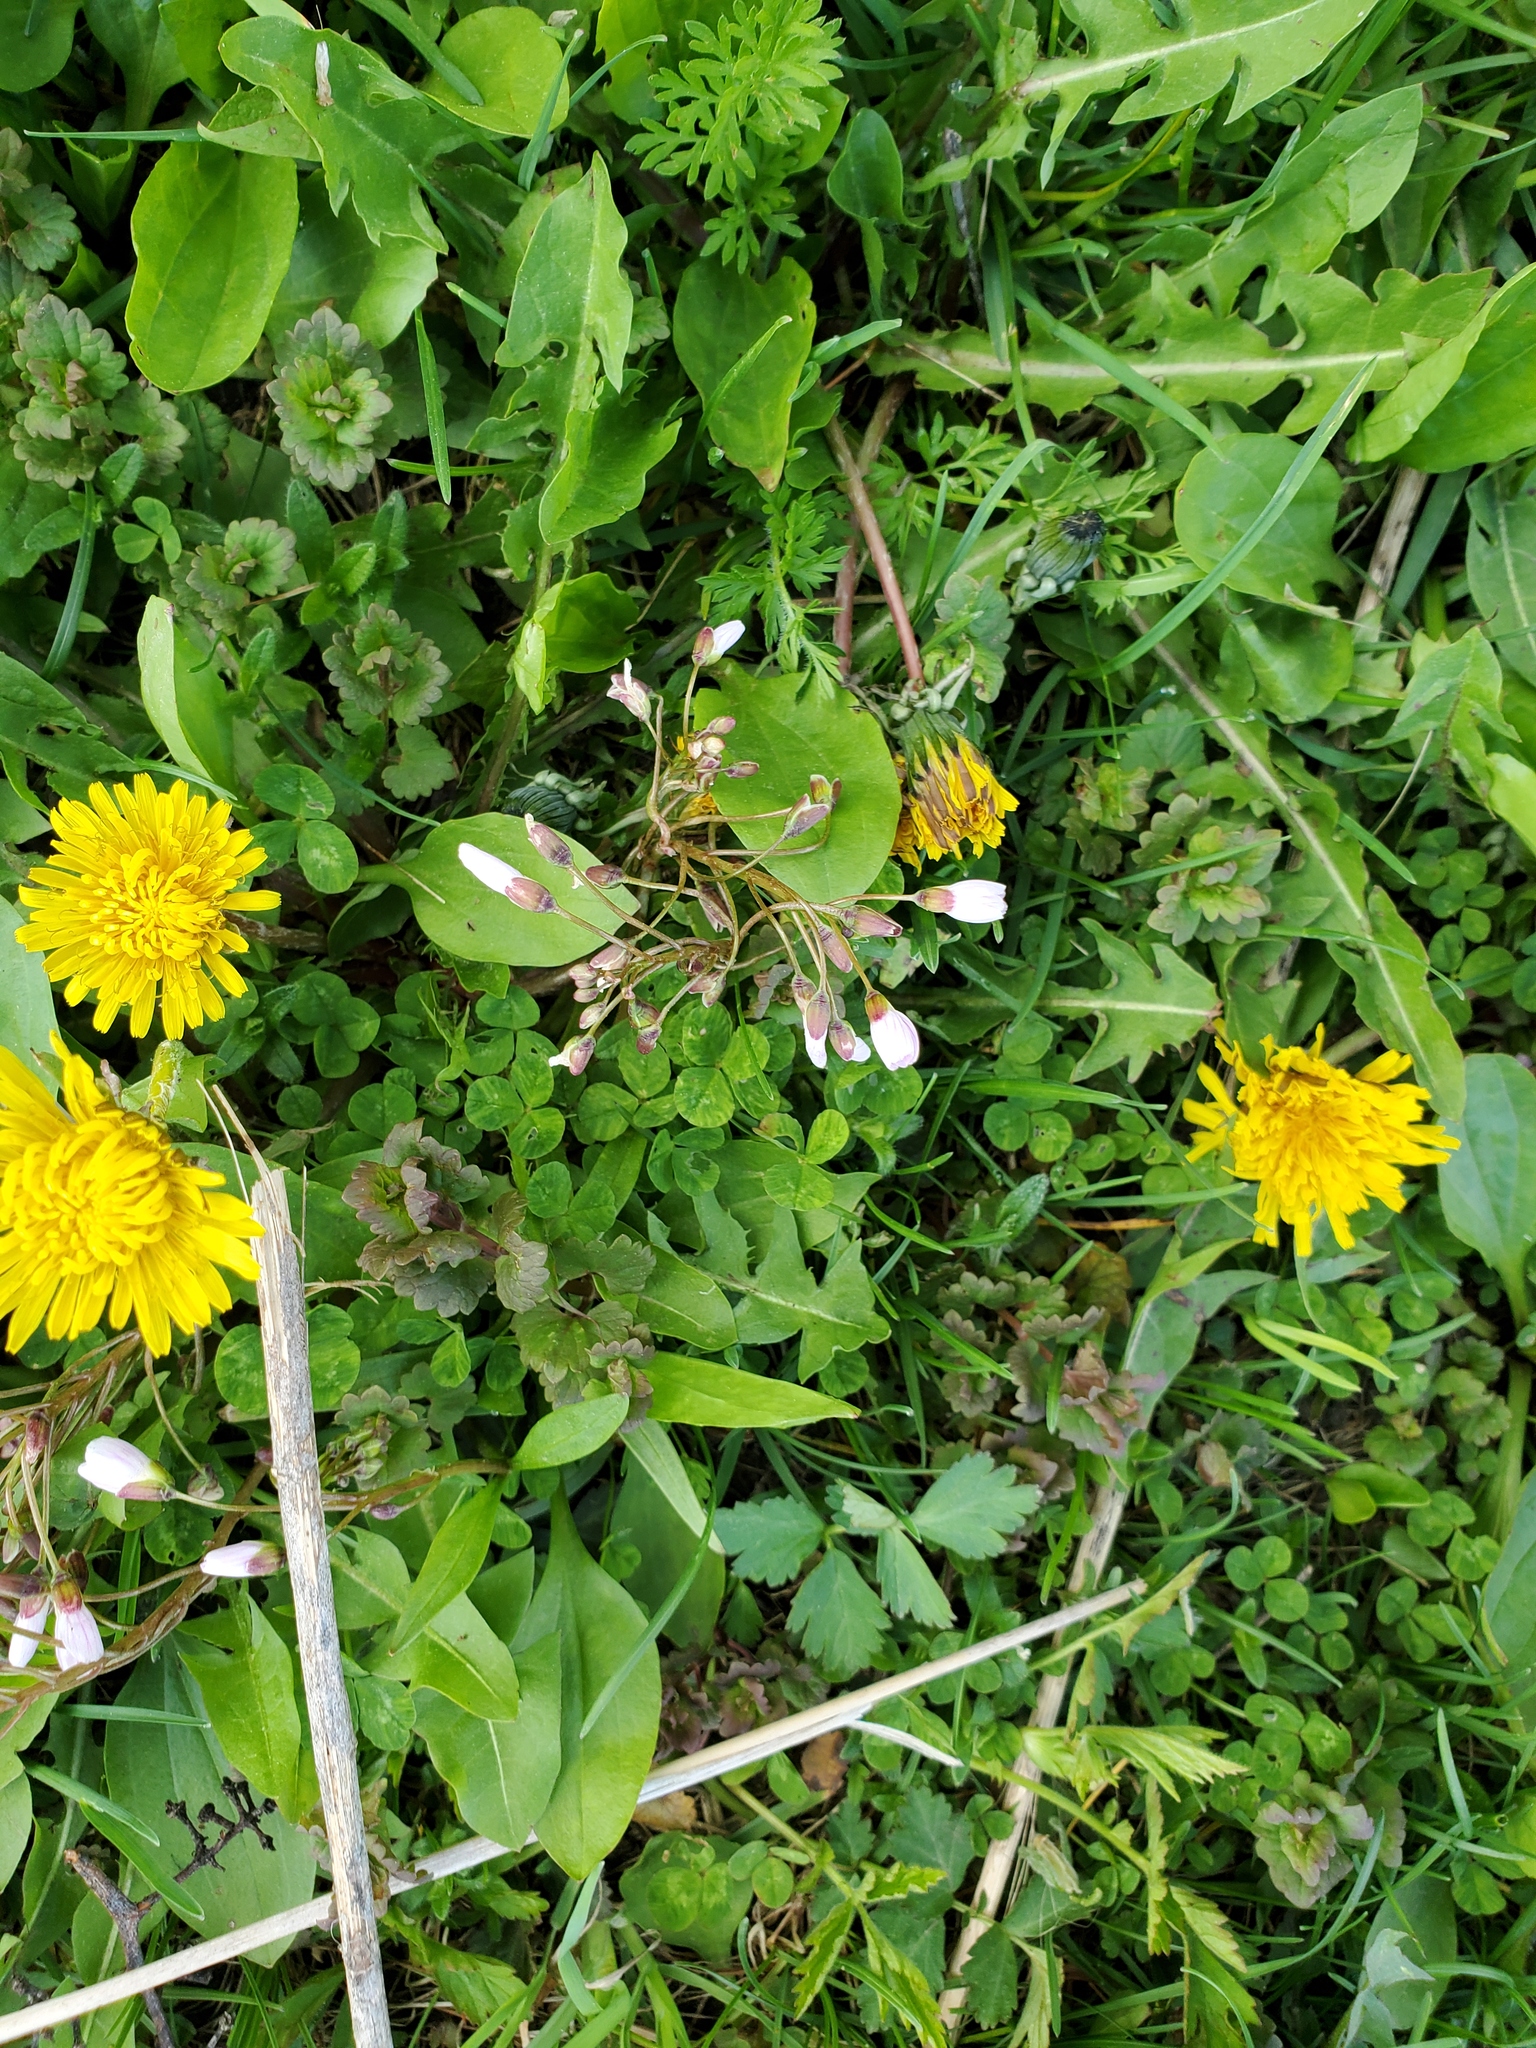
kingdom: Plantae
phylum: Tracheophyta
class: Magnoliopsida
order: Caryophyllales
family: Montiaceae
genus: Claytonia
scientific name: Claytonia virginica
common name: Virginia springbeauty
